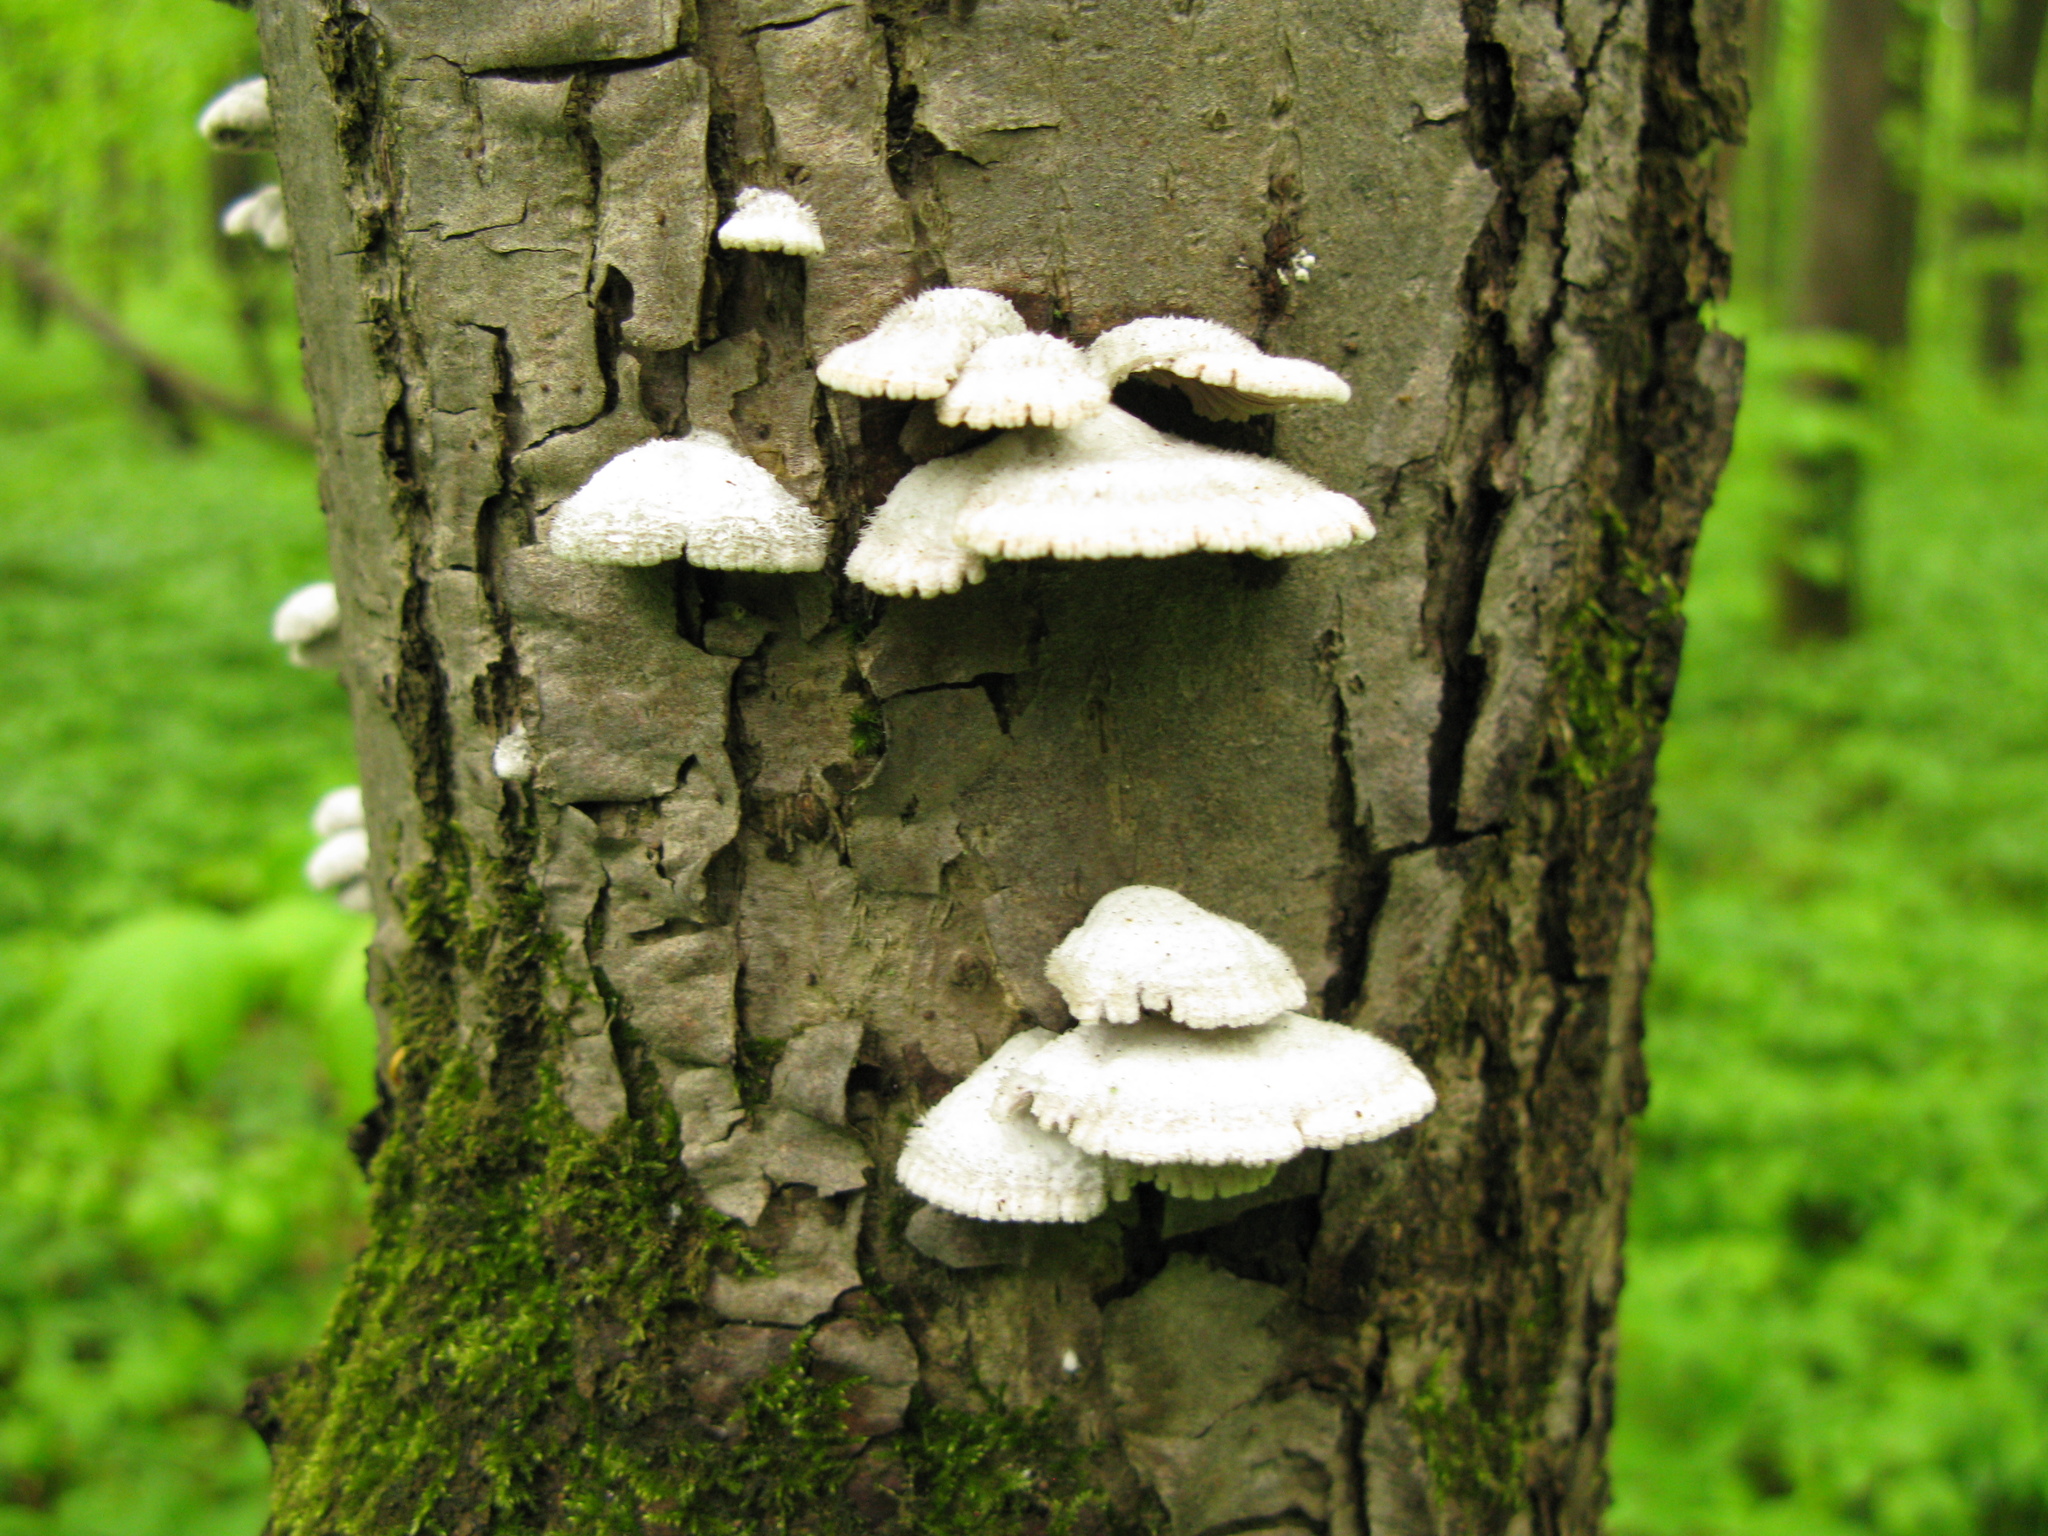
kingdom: Fungi
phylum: Basidiomycota
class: Agaricomycetes
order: Agaricales
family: Schizophyllaceae
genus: Schizophyllum
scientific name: Schizophyllum commune
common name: Common porecrust
